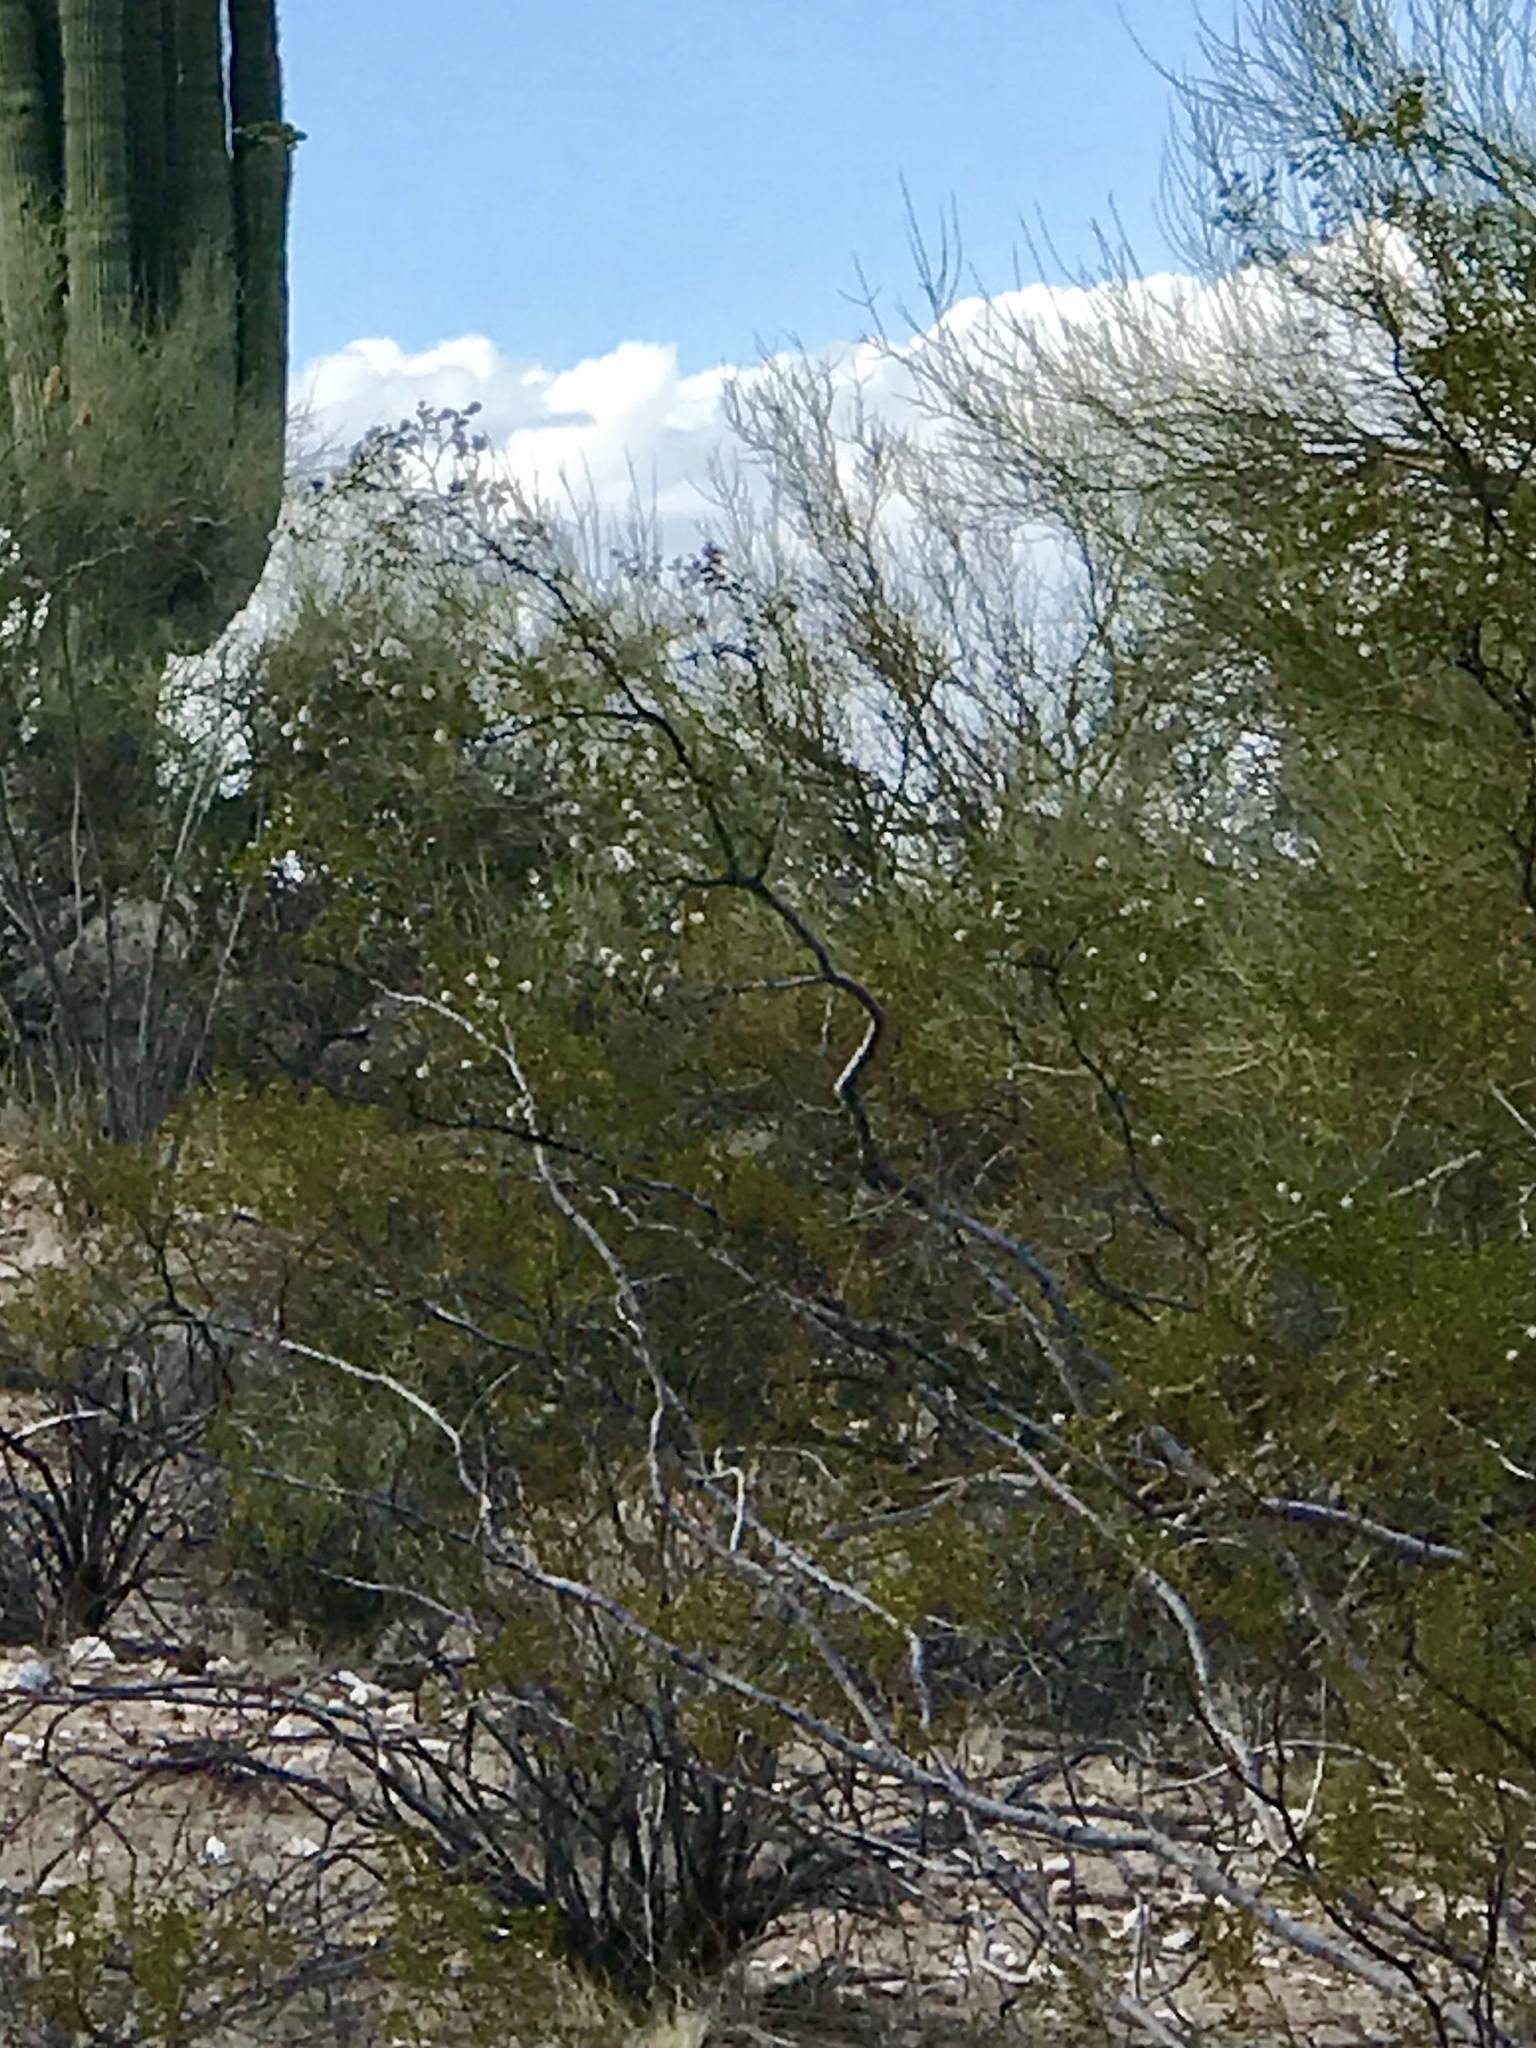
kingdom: Plantae
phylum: Tracheophyta
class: Magnoliopsida
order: Zygophyllales
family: Zygophyllaceae
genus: Larrea
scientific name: Larrea tridentata
